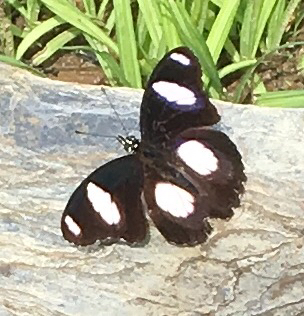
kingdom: Animalia
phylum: Arthropoda
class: Insecta
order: Lepidoptera
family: Nymphalidae
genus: Hypolimnas
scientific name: Hypolimnas misippus
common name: False plain tiger
